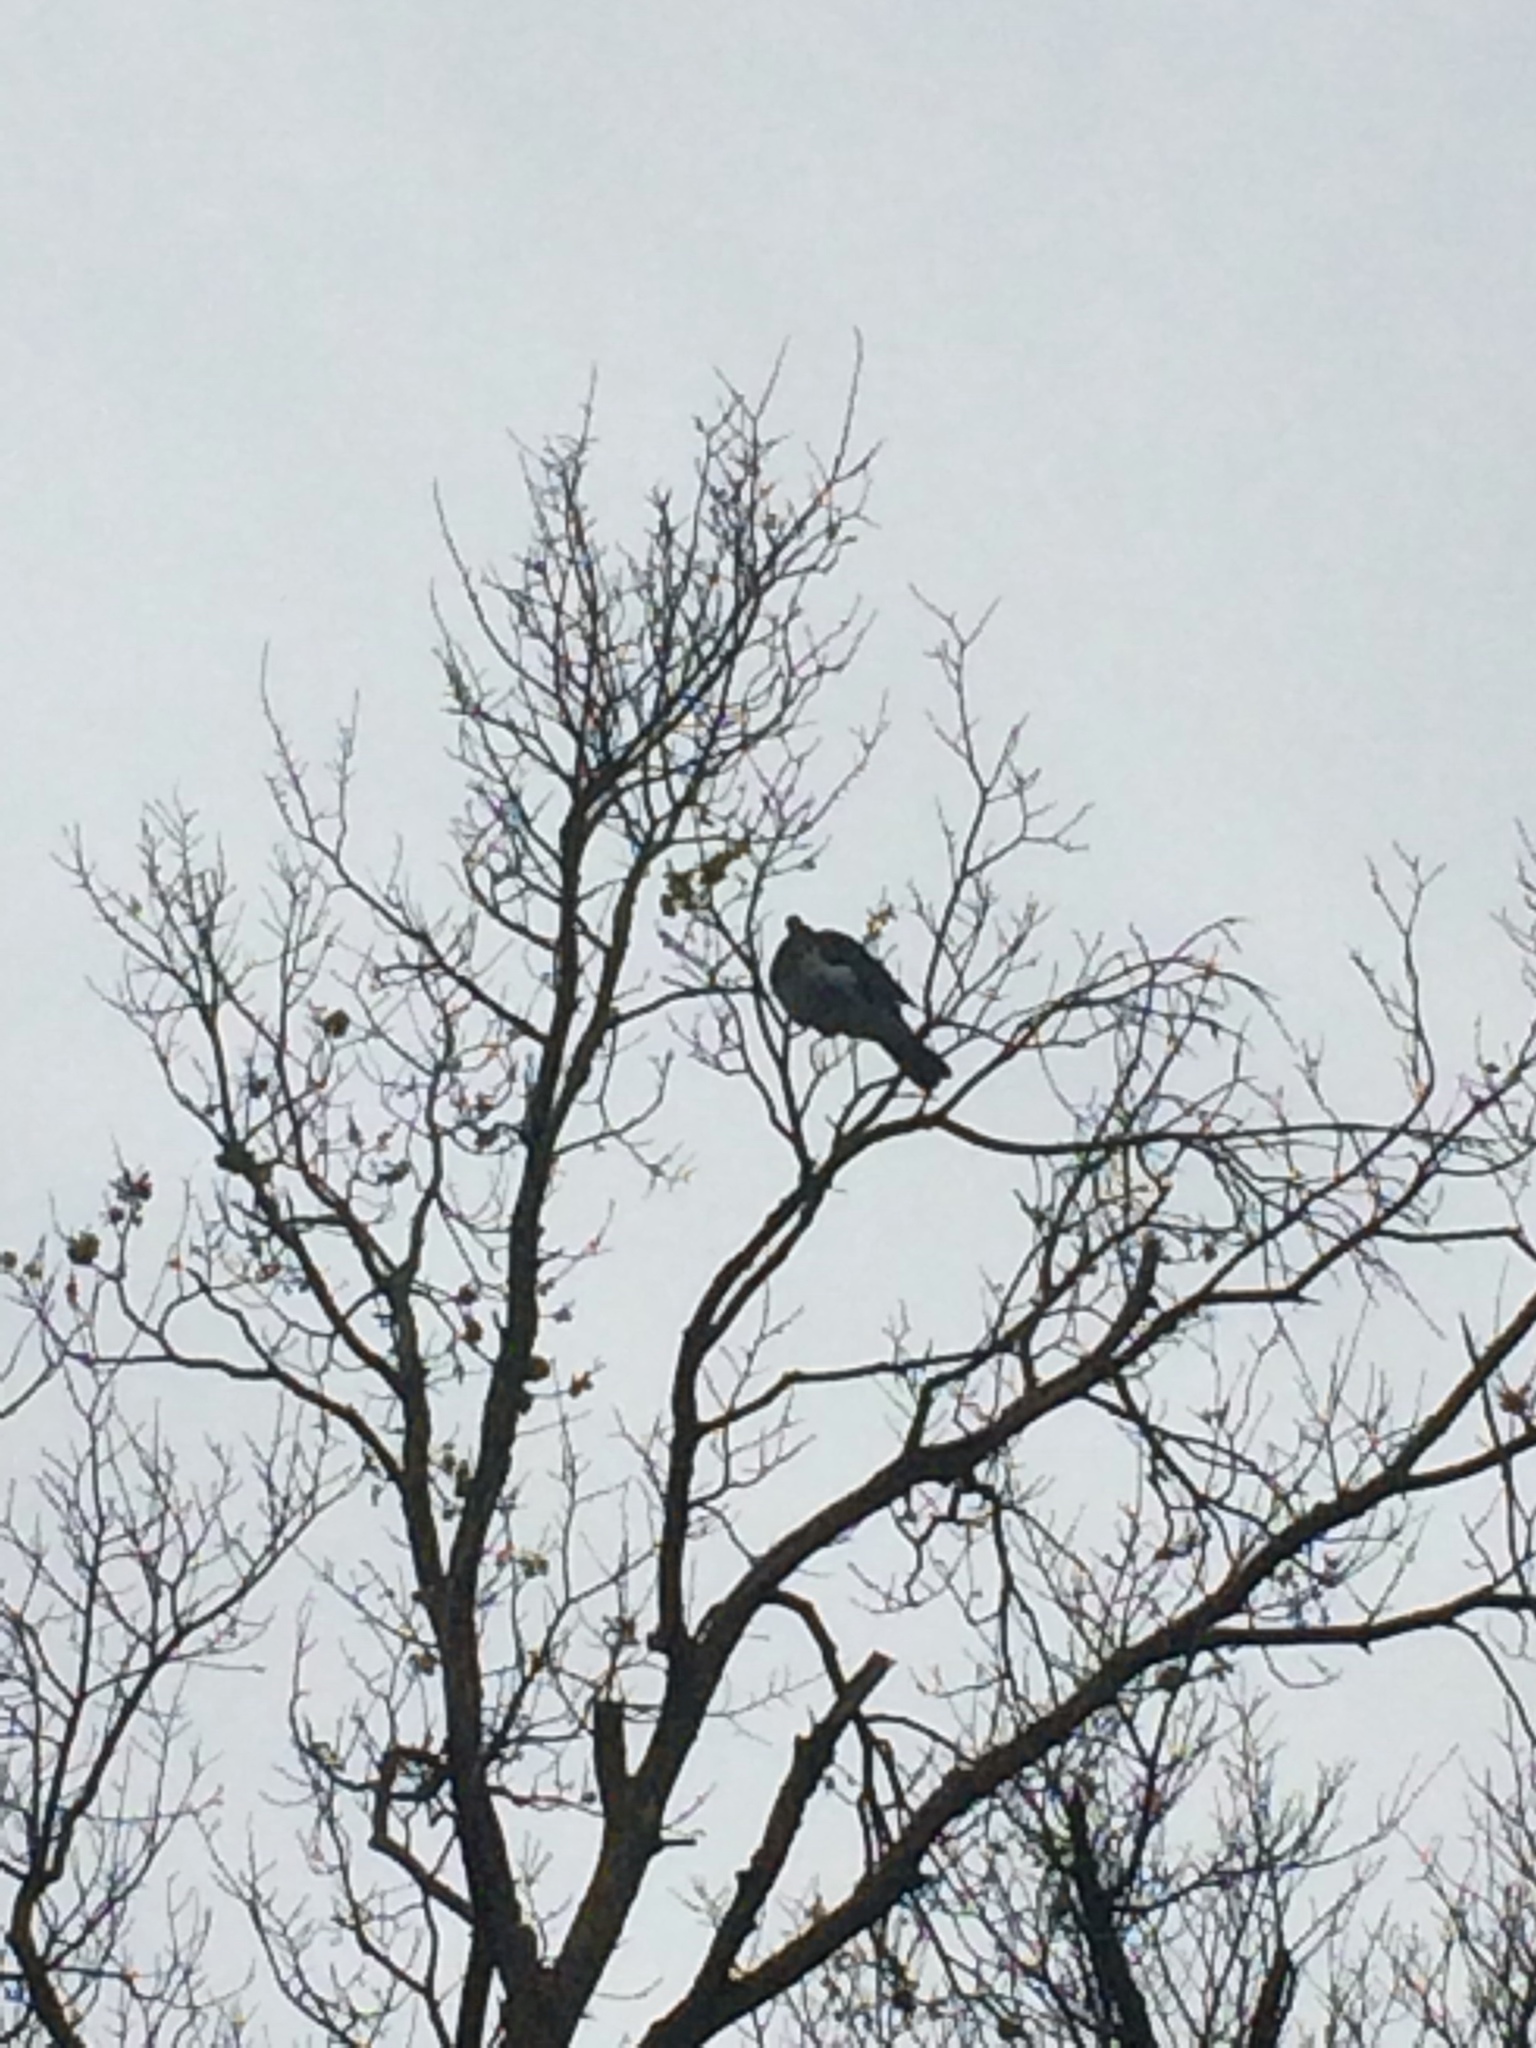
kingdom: Animalia
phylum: Chordata
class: Aves
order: Columbiformes
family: Columbidae
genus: Hemiphaga
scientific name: Hemiphaga novaeseelandiae
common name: New zealand pigeon
